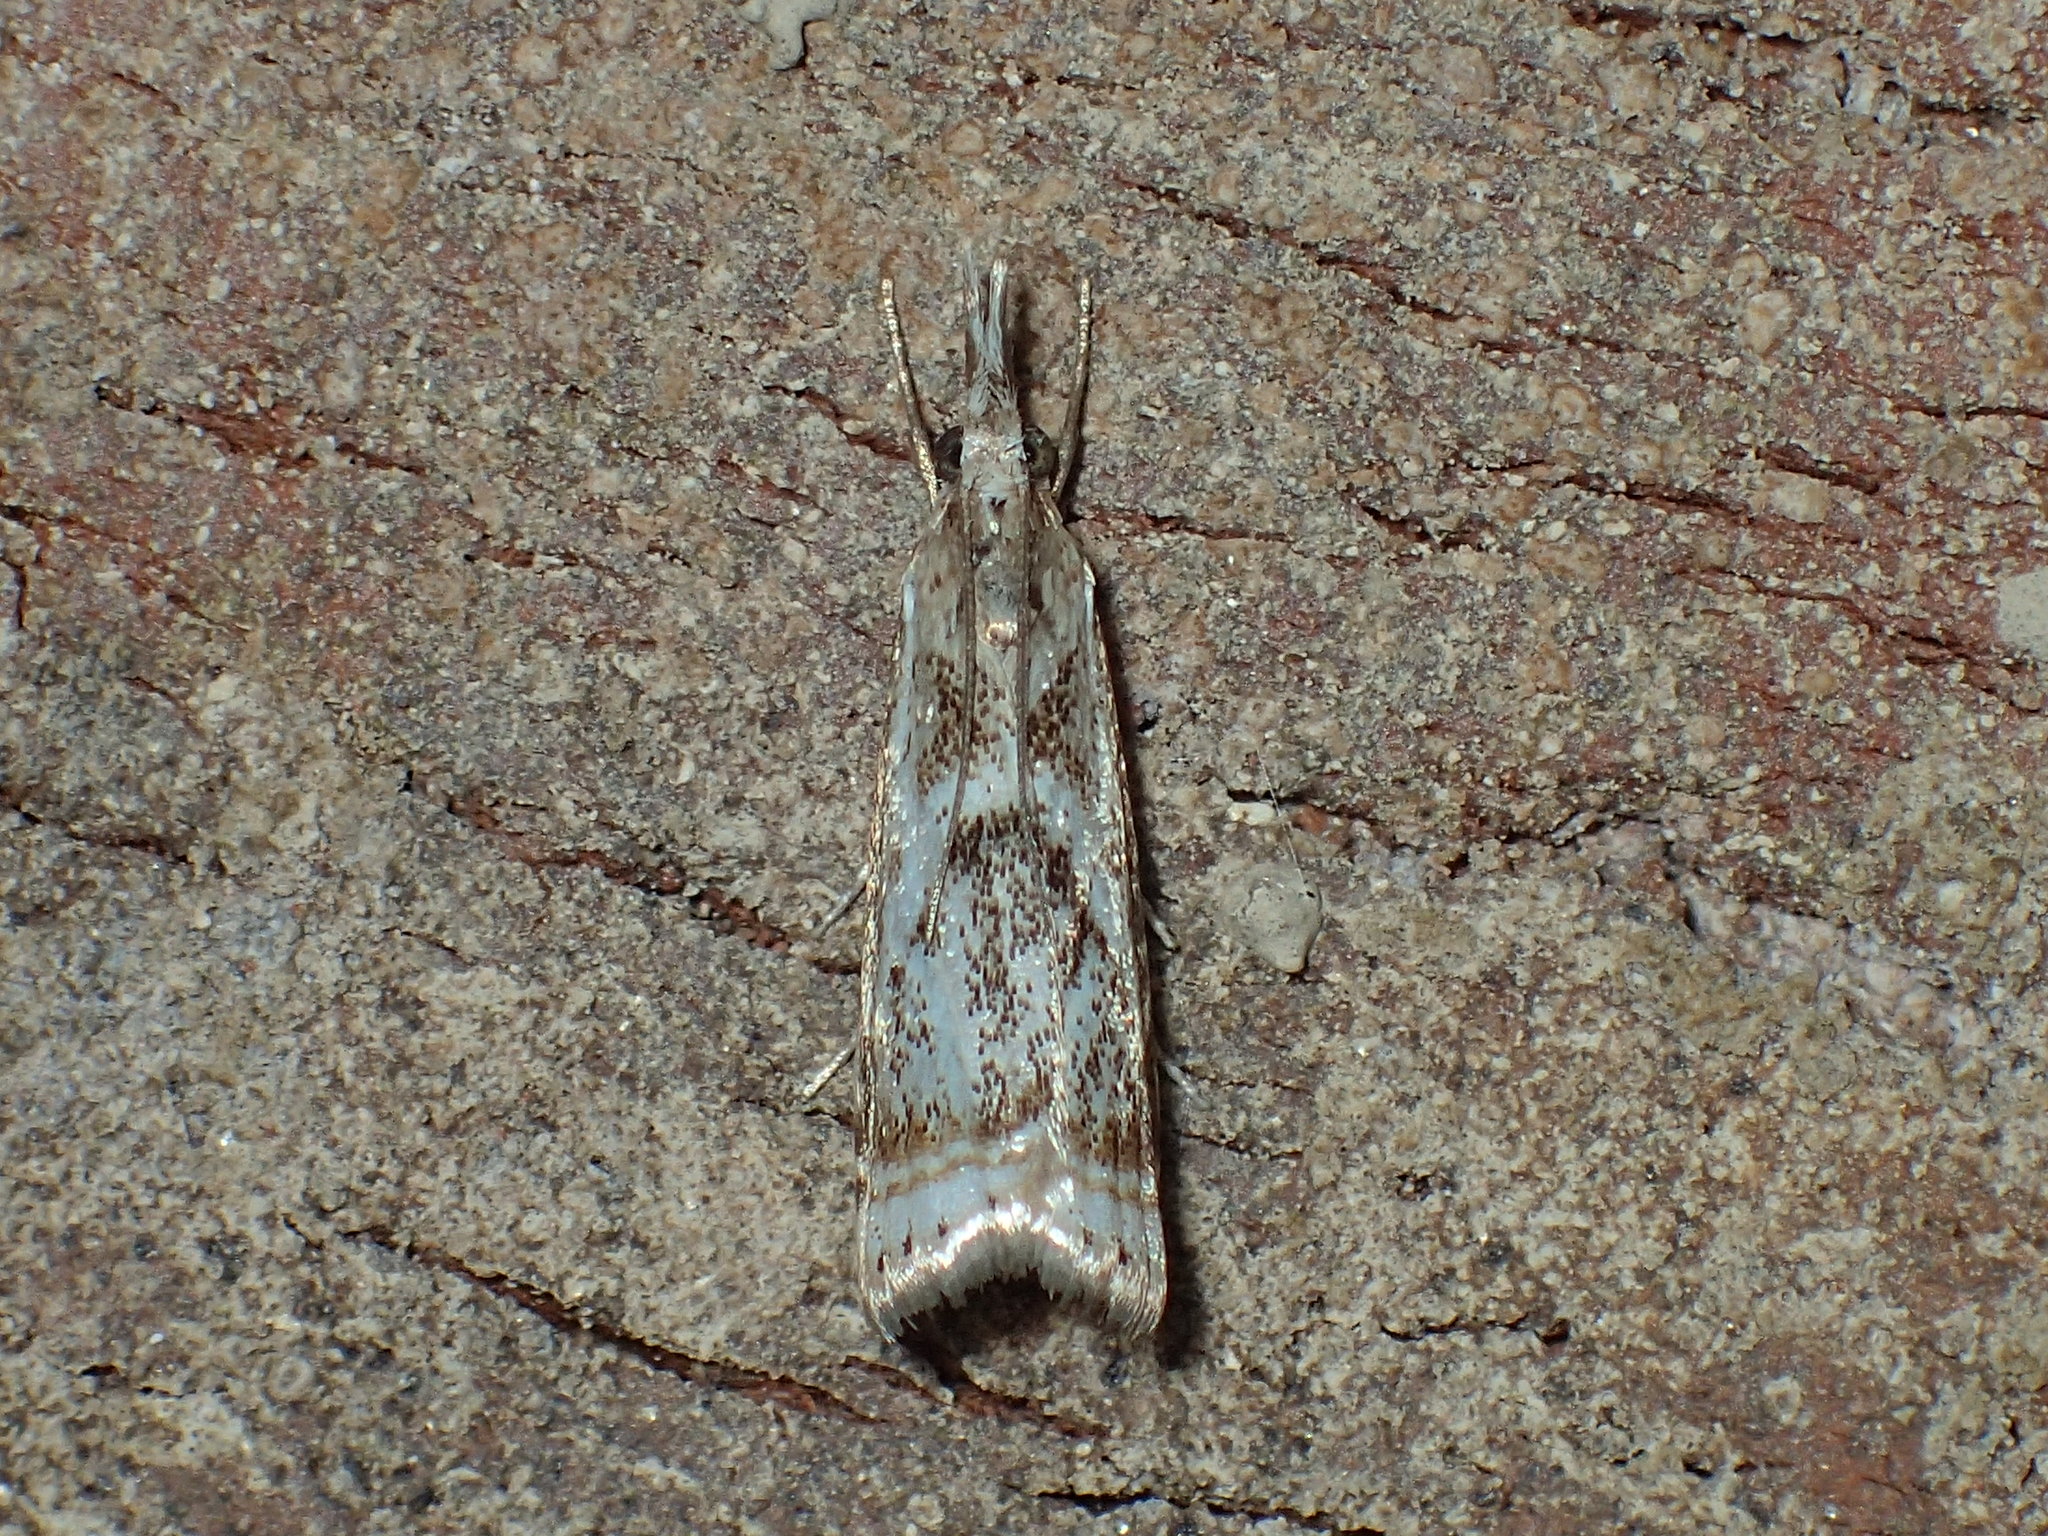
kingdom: Animalia
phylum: Arthropoda
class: Insecta
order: Lepidoptera
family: Crambidae
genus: Microcrambus
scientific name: Microcrambus elegans
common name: Elegant grass-veneer
